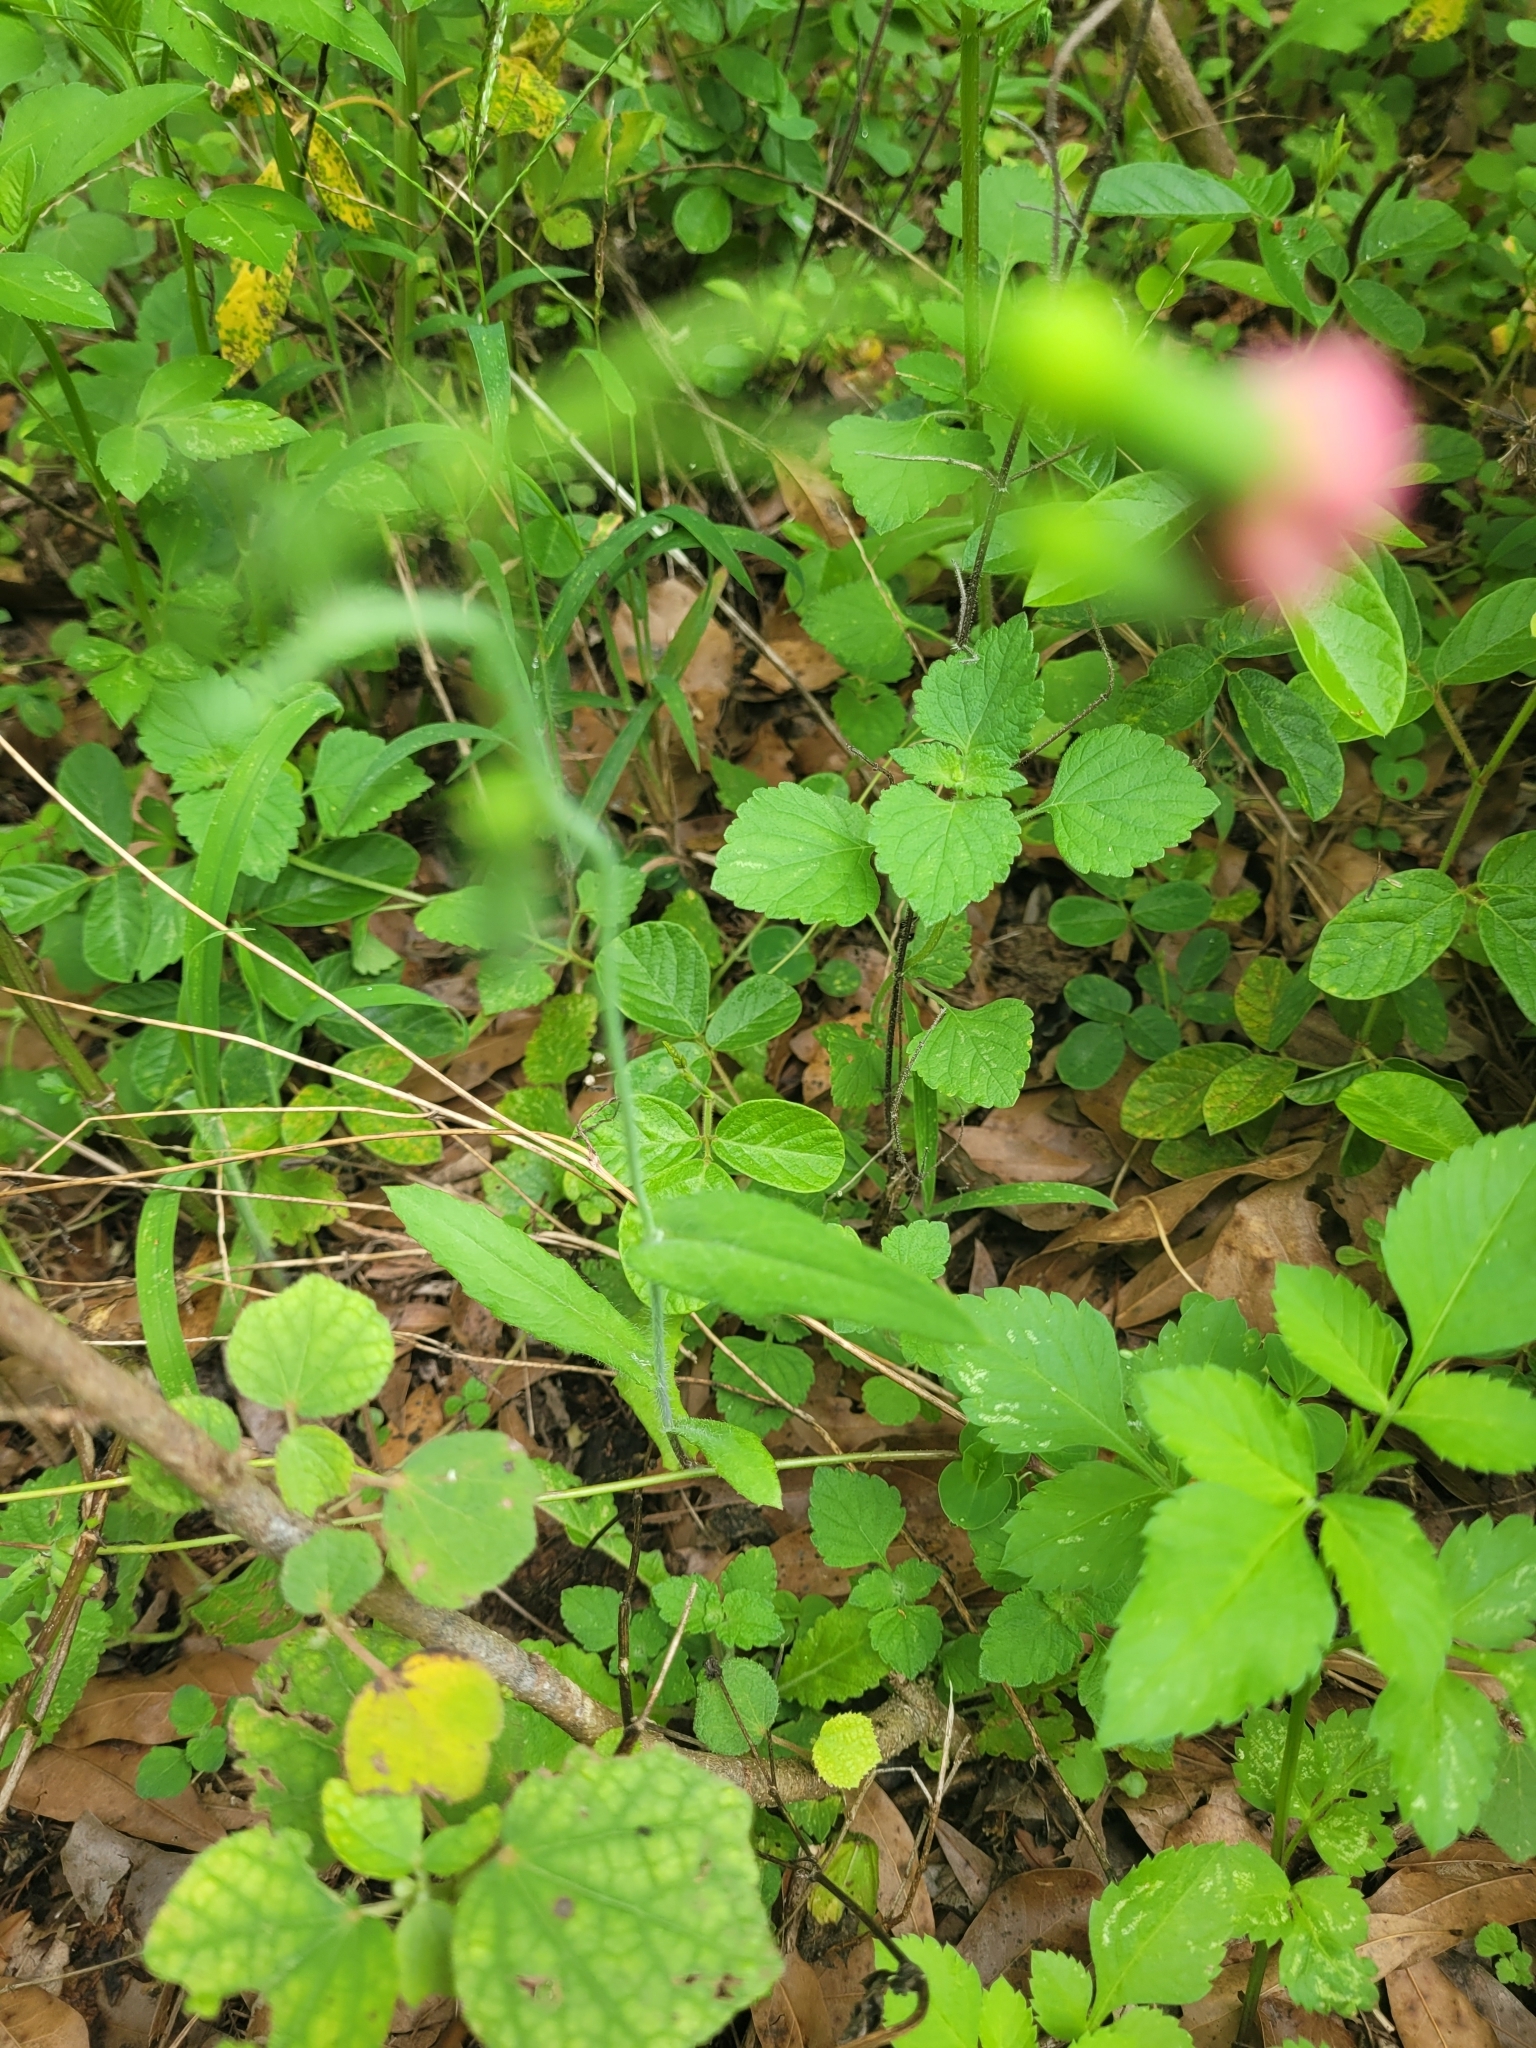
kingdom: Plantae
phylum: Tracheophyta
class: Magnoliopsida
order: Asterales
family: Asteraceae
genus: Emilia
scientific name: Emilia fosbergii
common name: Florida tasselflower
